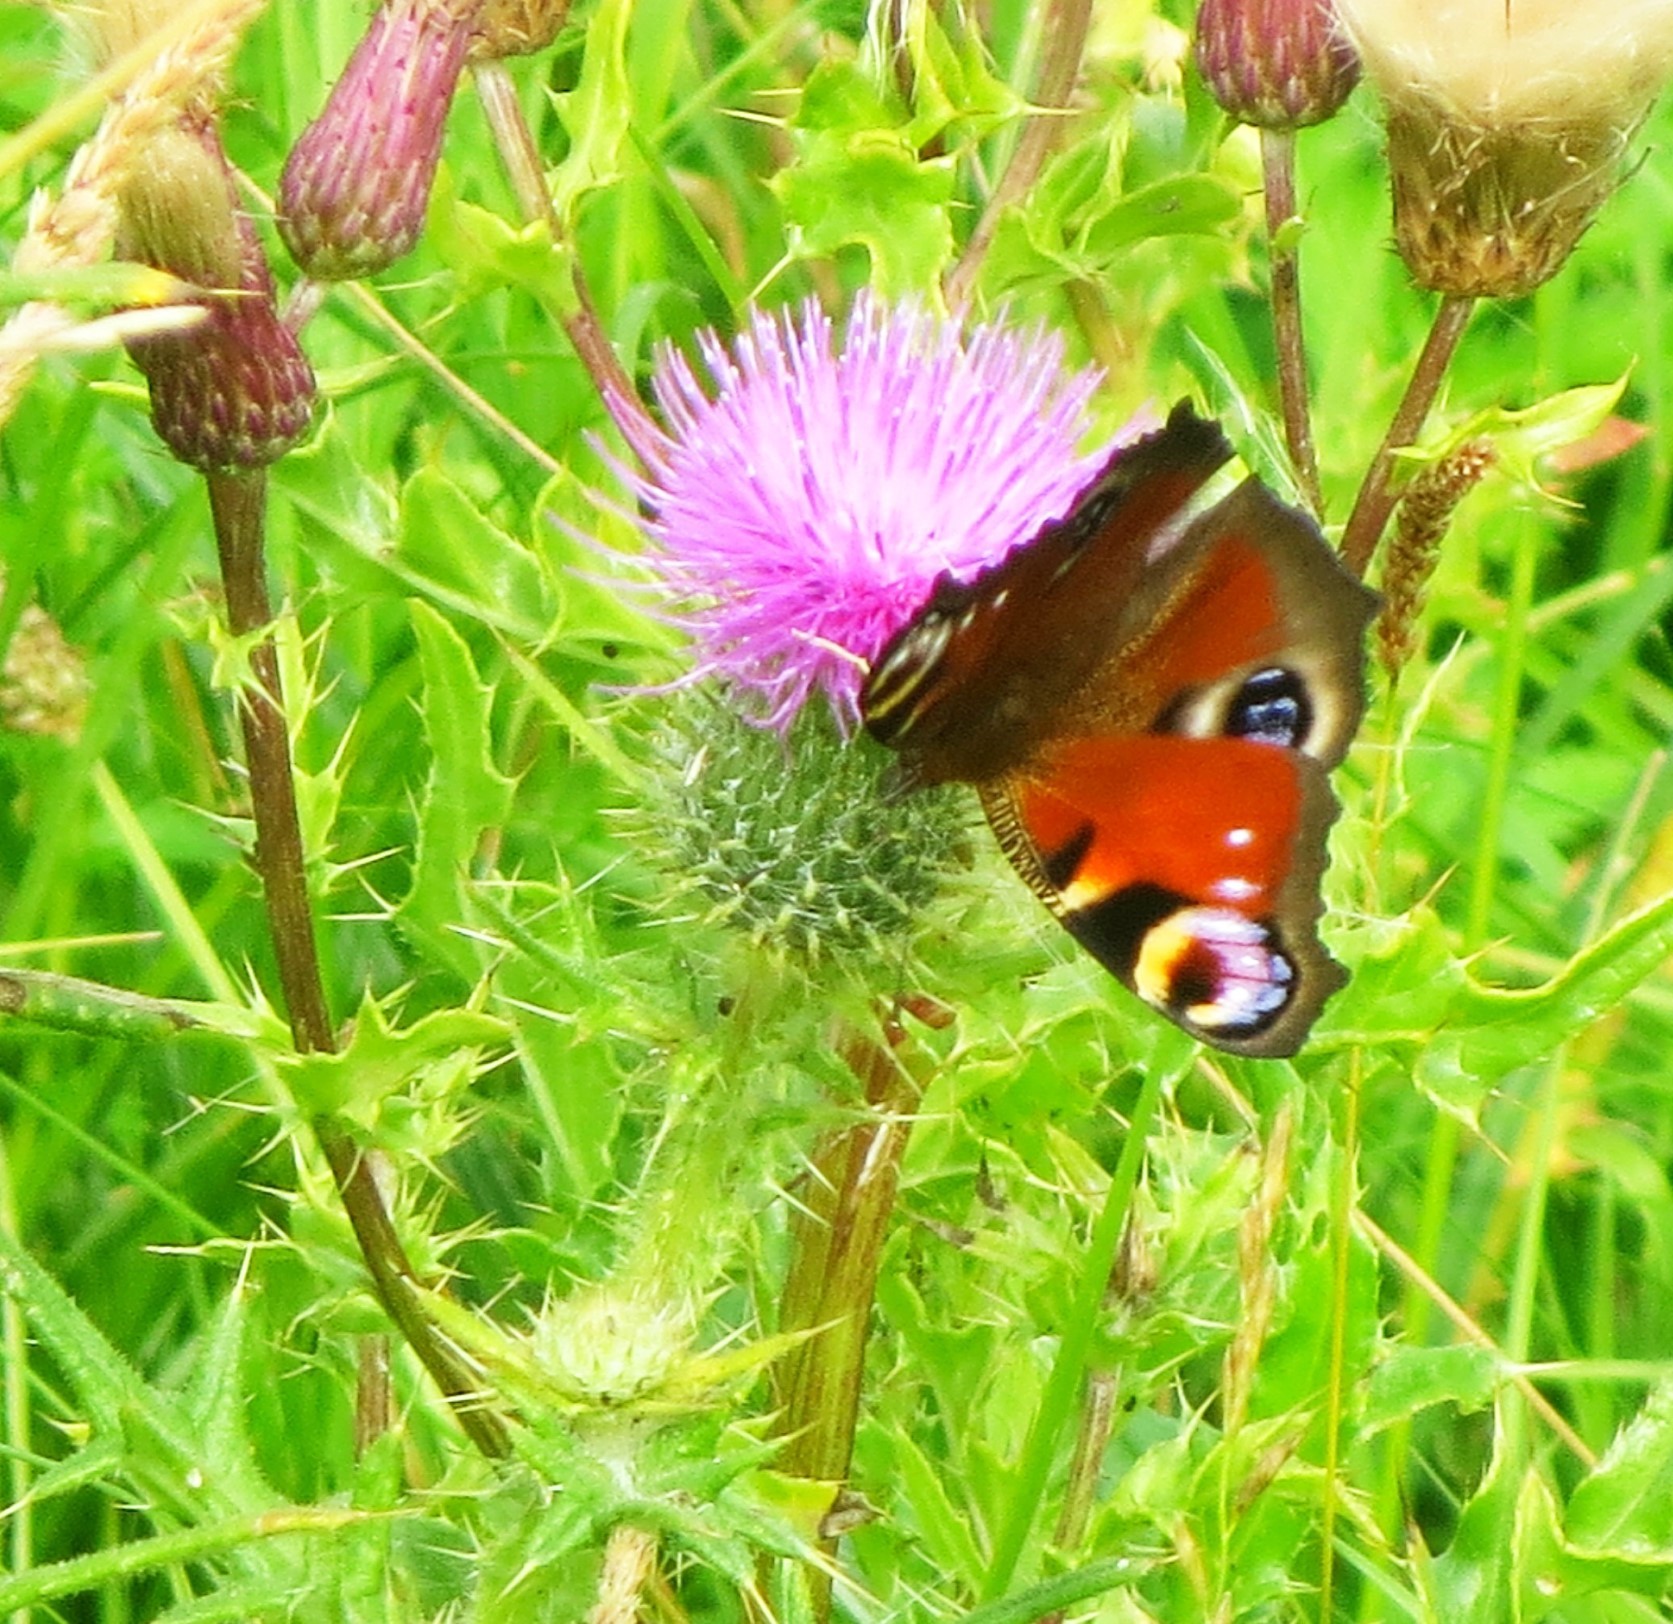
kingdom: Animalia
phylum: Arthropoda
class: Insecta
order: Lepidoptera
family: Nymphalidae
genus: Aglais
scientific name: Aglais io
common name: Peacock
